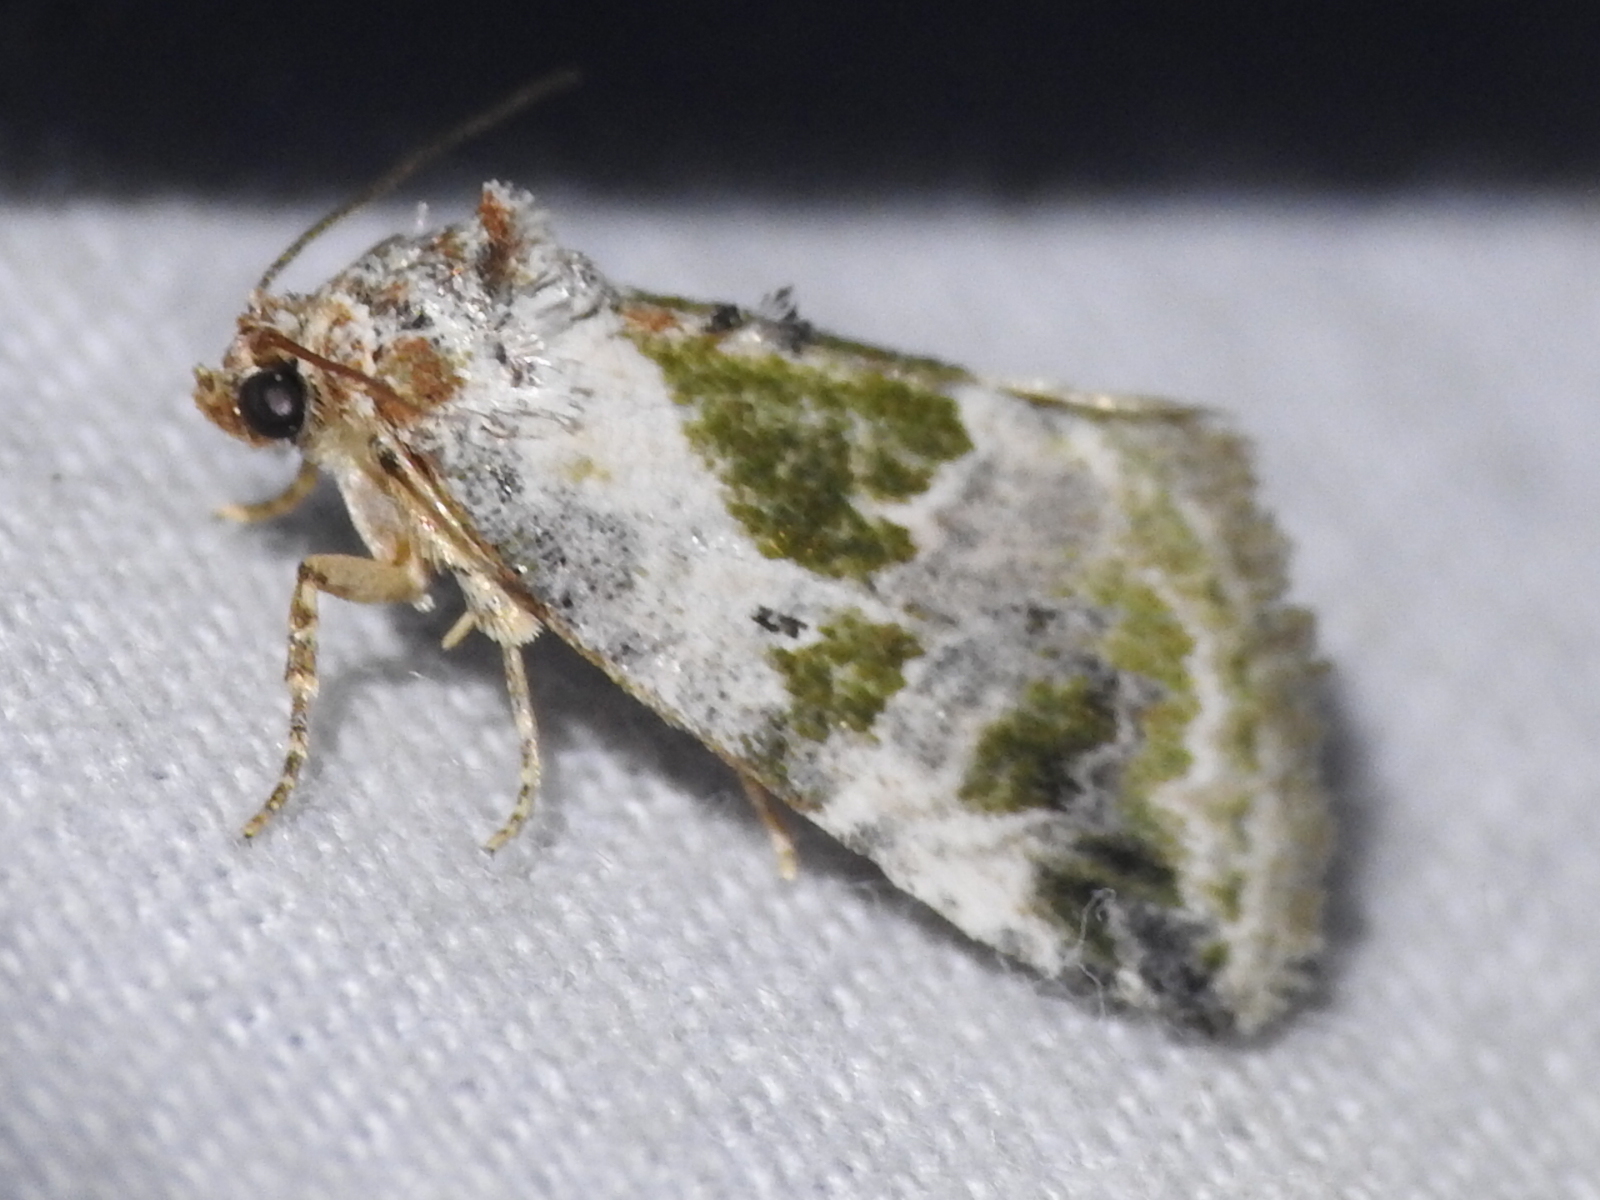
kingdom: Animalia
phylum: Arthropoda
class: Insecta
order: Lepidoptera
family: Noctuidae
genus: Maliattha
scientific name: Maliattha synochitis
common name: Black-dotted glyph
